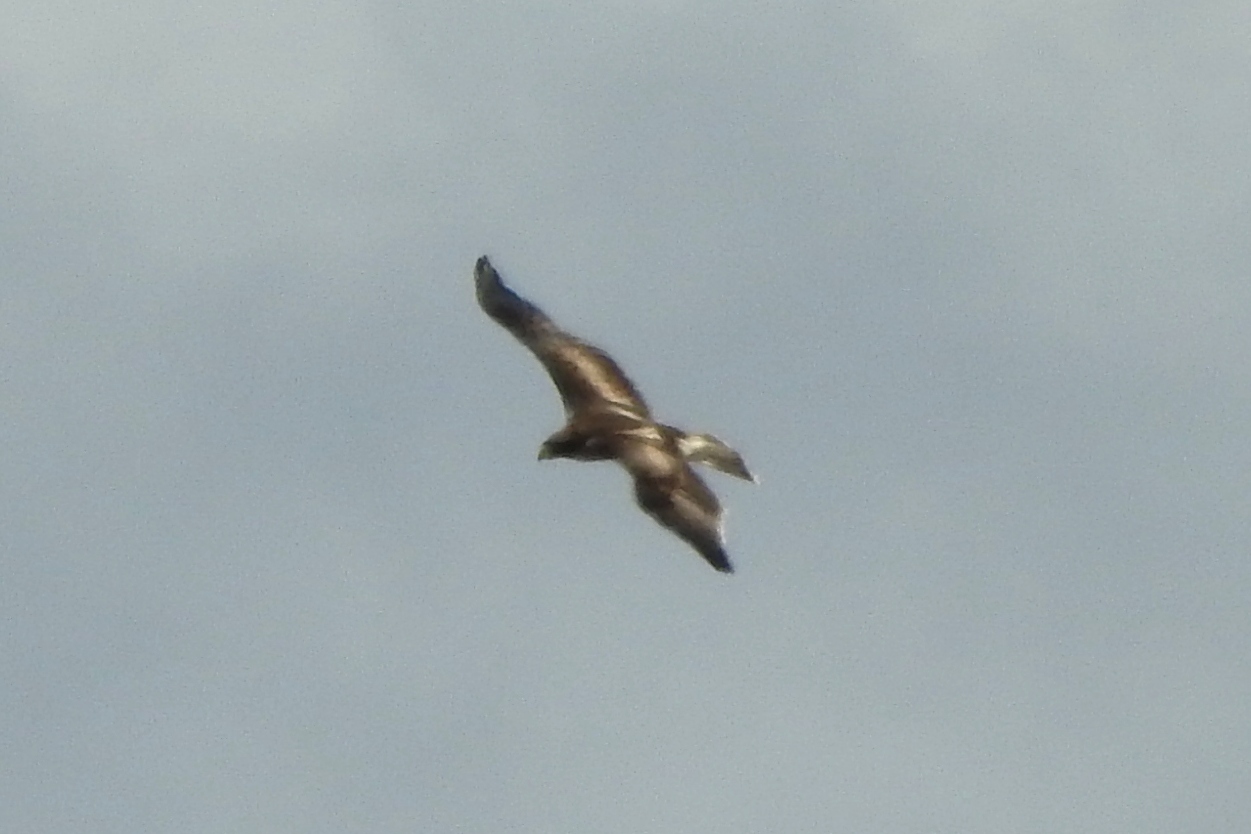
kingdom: Animalia
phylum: Chordata
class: Aves
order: Accipitriformes
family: Accipitridae
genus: Hieraaetus
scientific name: Hieraaetus pennatus
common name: Booted eagle
